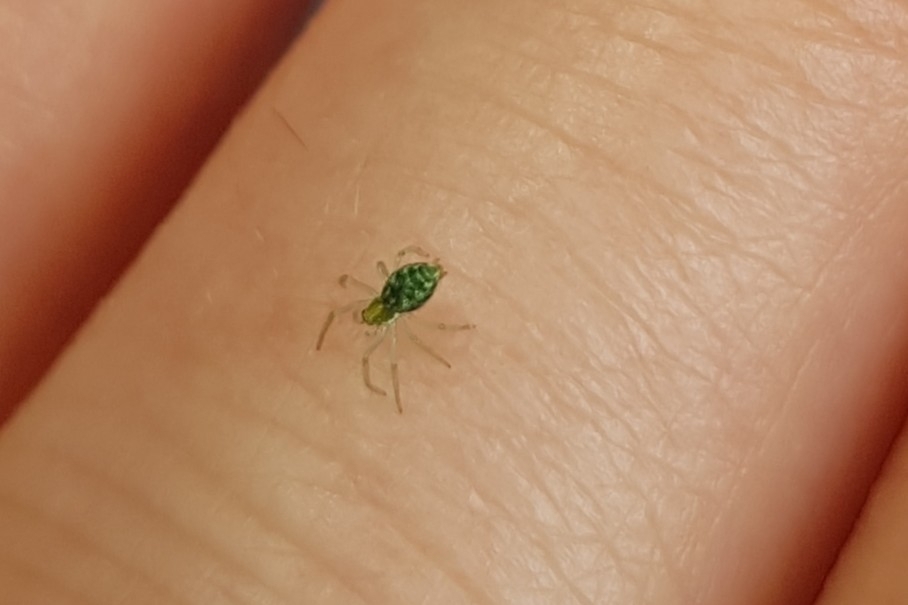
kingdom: Animalia
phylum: Arthropoda
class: Arachnida
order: Araneae
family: Dictynidae
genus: Nigma
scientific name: Nigma walckenaeri
